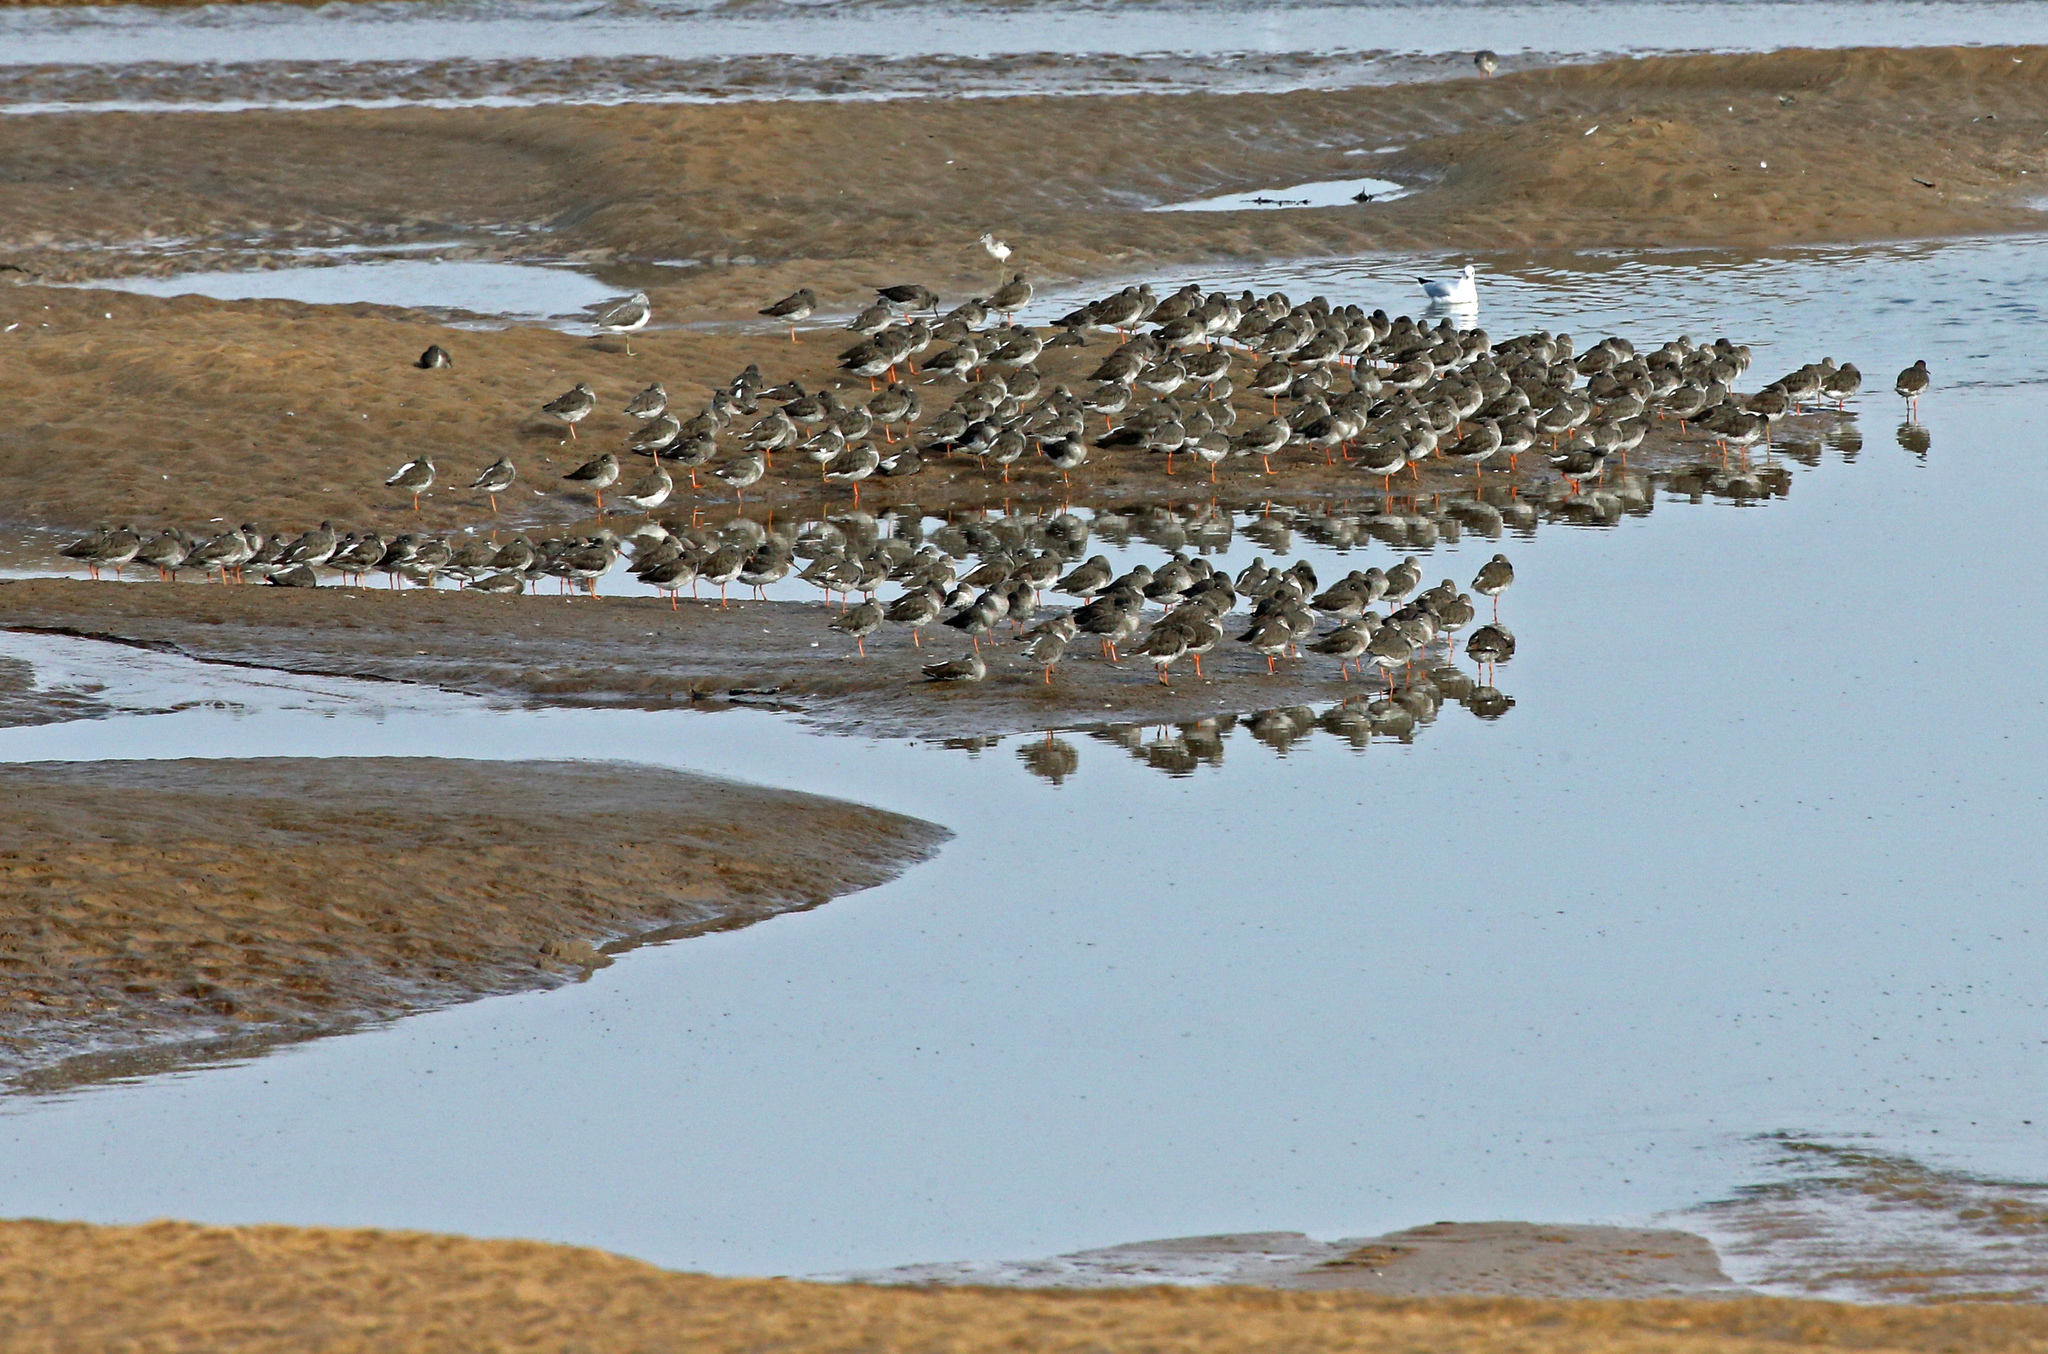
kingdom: Animalia
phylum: Chordata
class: Aves
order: Charadriiformes
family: Scolopacidae
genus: Tringa
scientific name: Tringa totanus
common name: Common redshank
